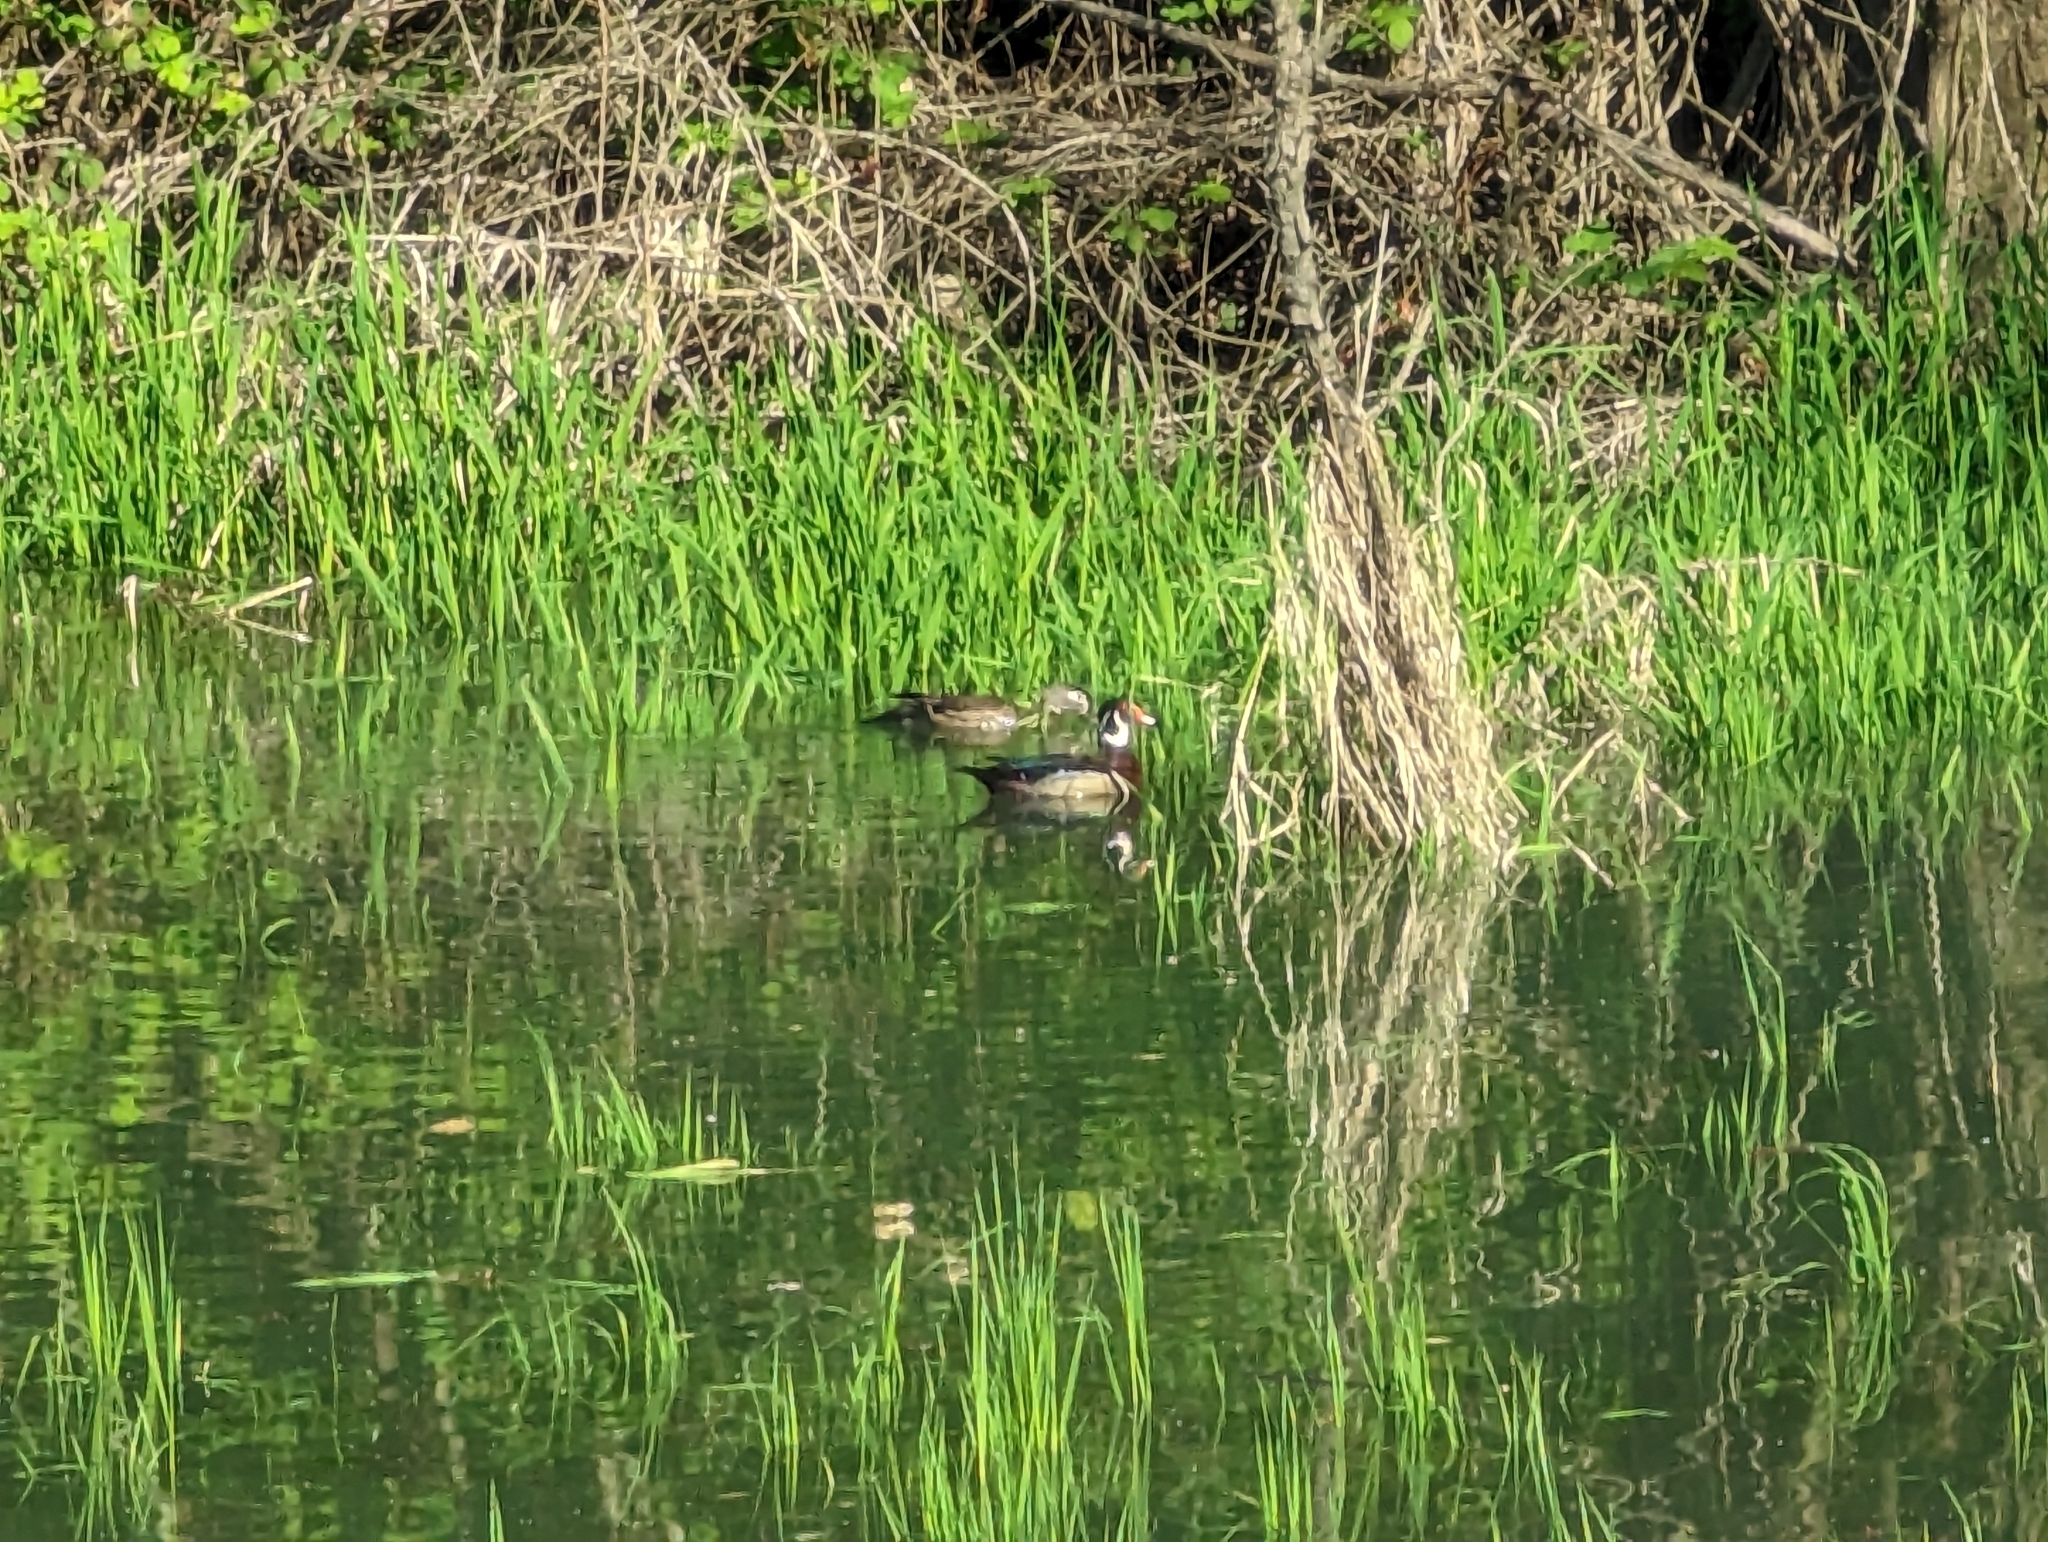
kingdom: Animalia
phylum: Chordata
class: Aves
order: Anseriformes
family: Anatidae
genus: Aix
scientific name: Aix sponsa
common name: Wood duck
